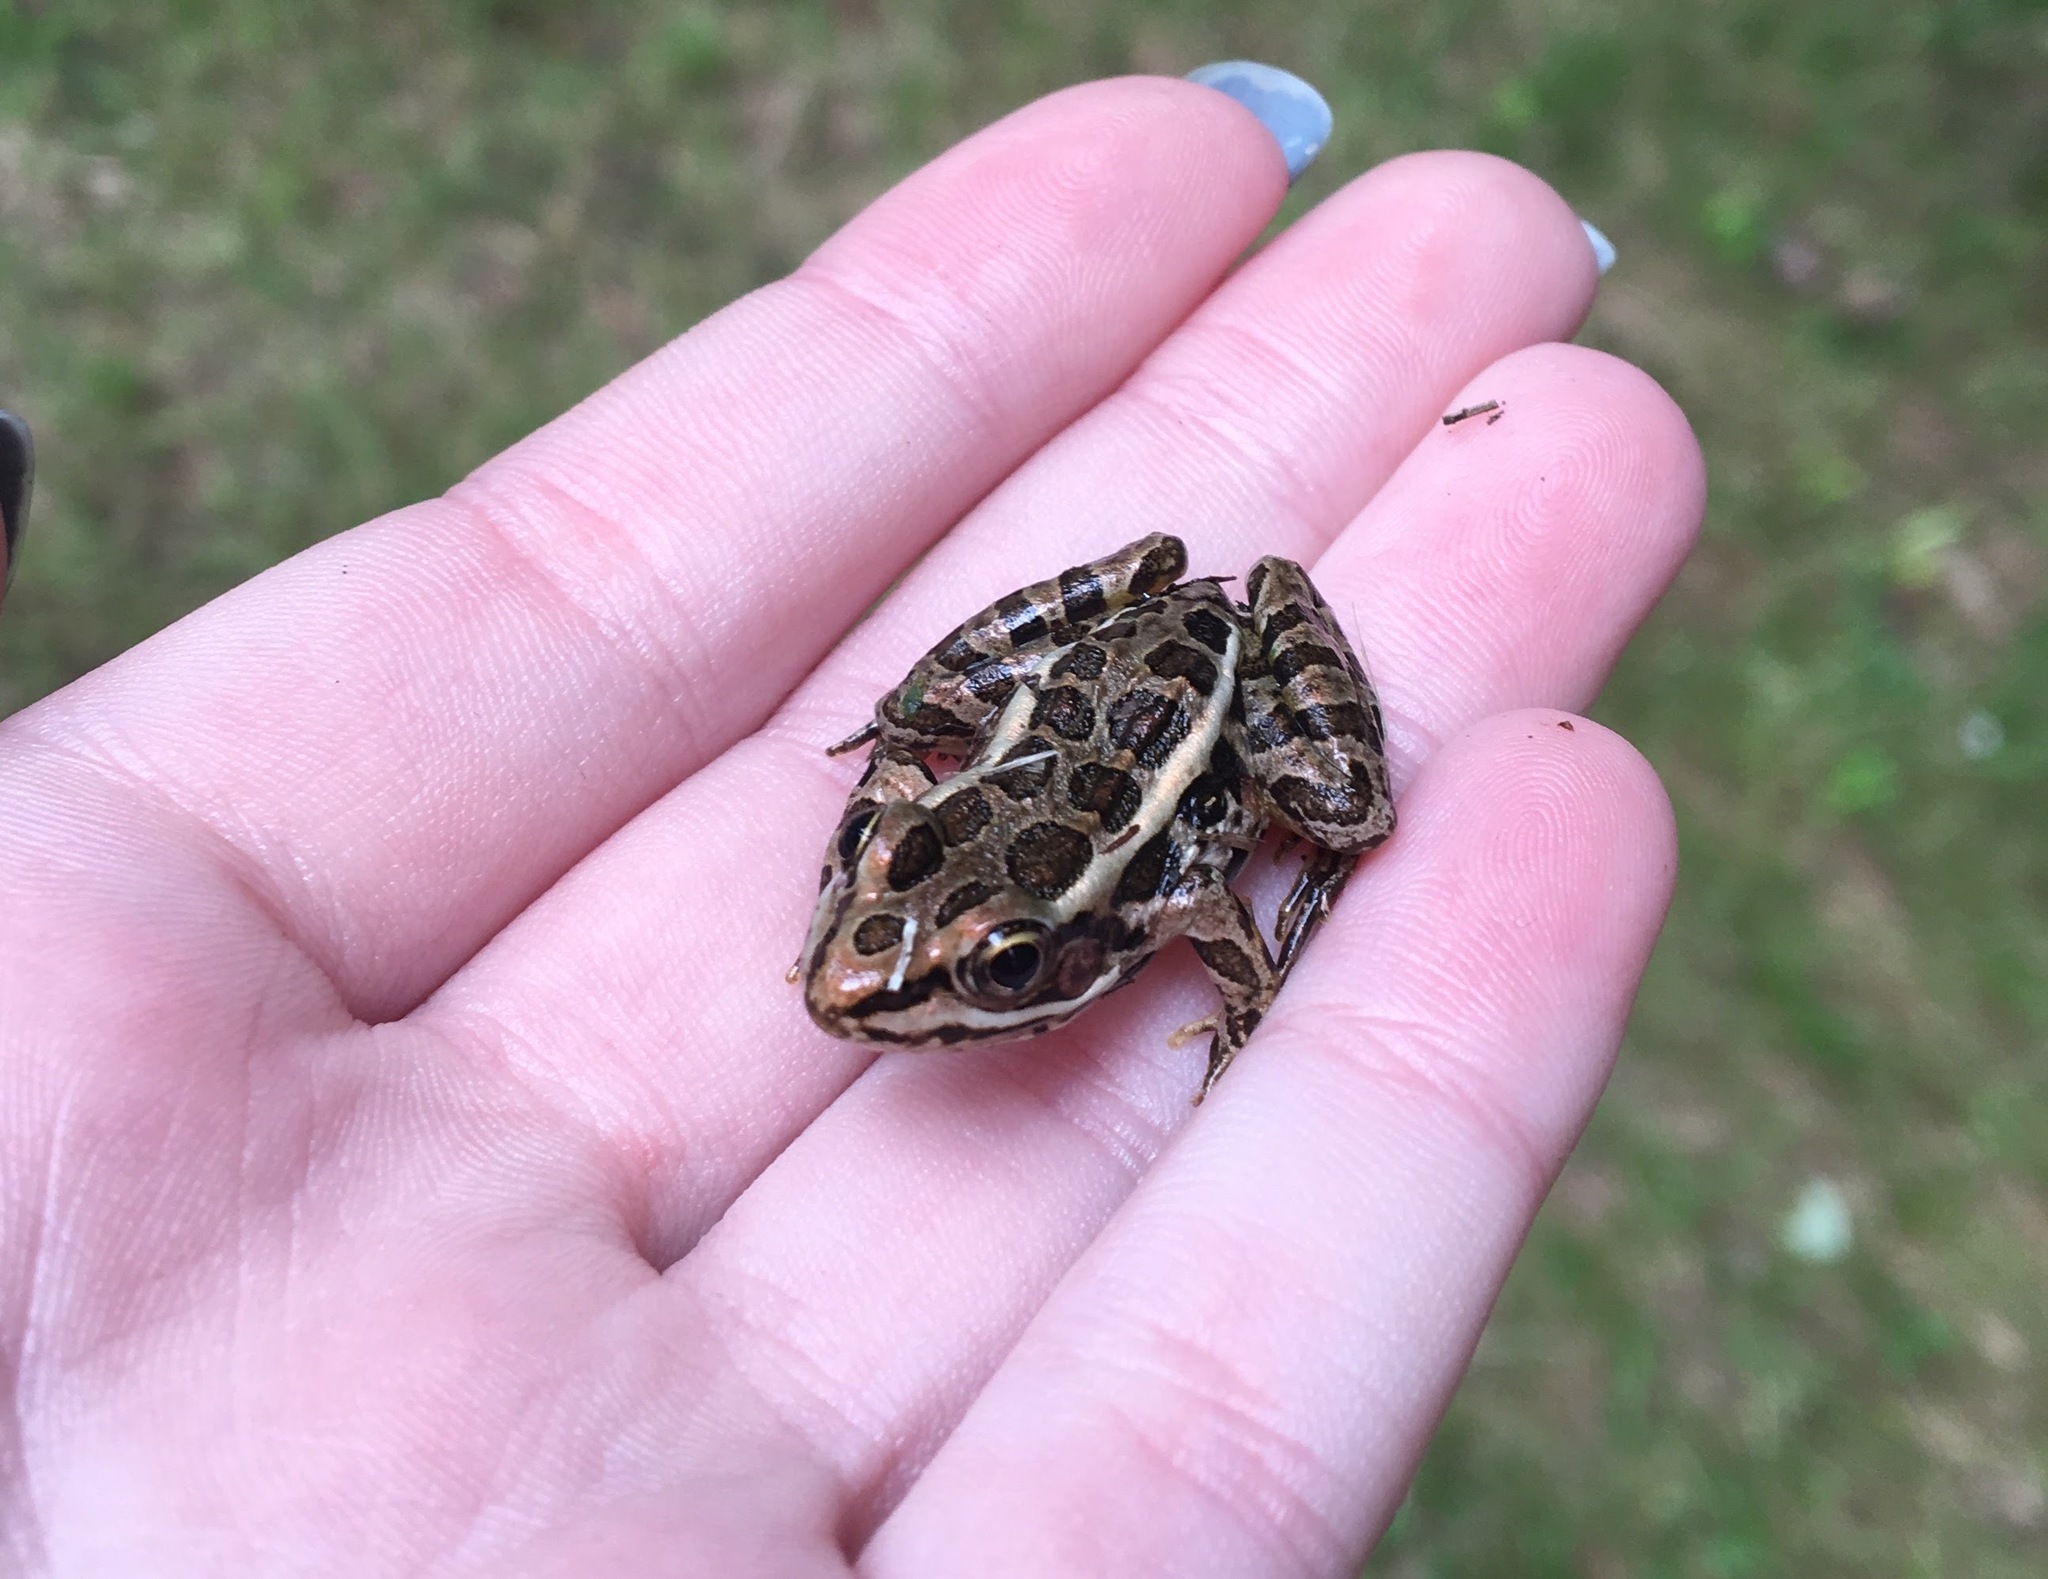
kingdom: Animalia
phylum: Chordata
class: Amphibia
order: Anura
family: Ranidae
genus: Lithobates
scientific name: Lithobates palustris
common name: Pickerel frog
